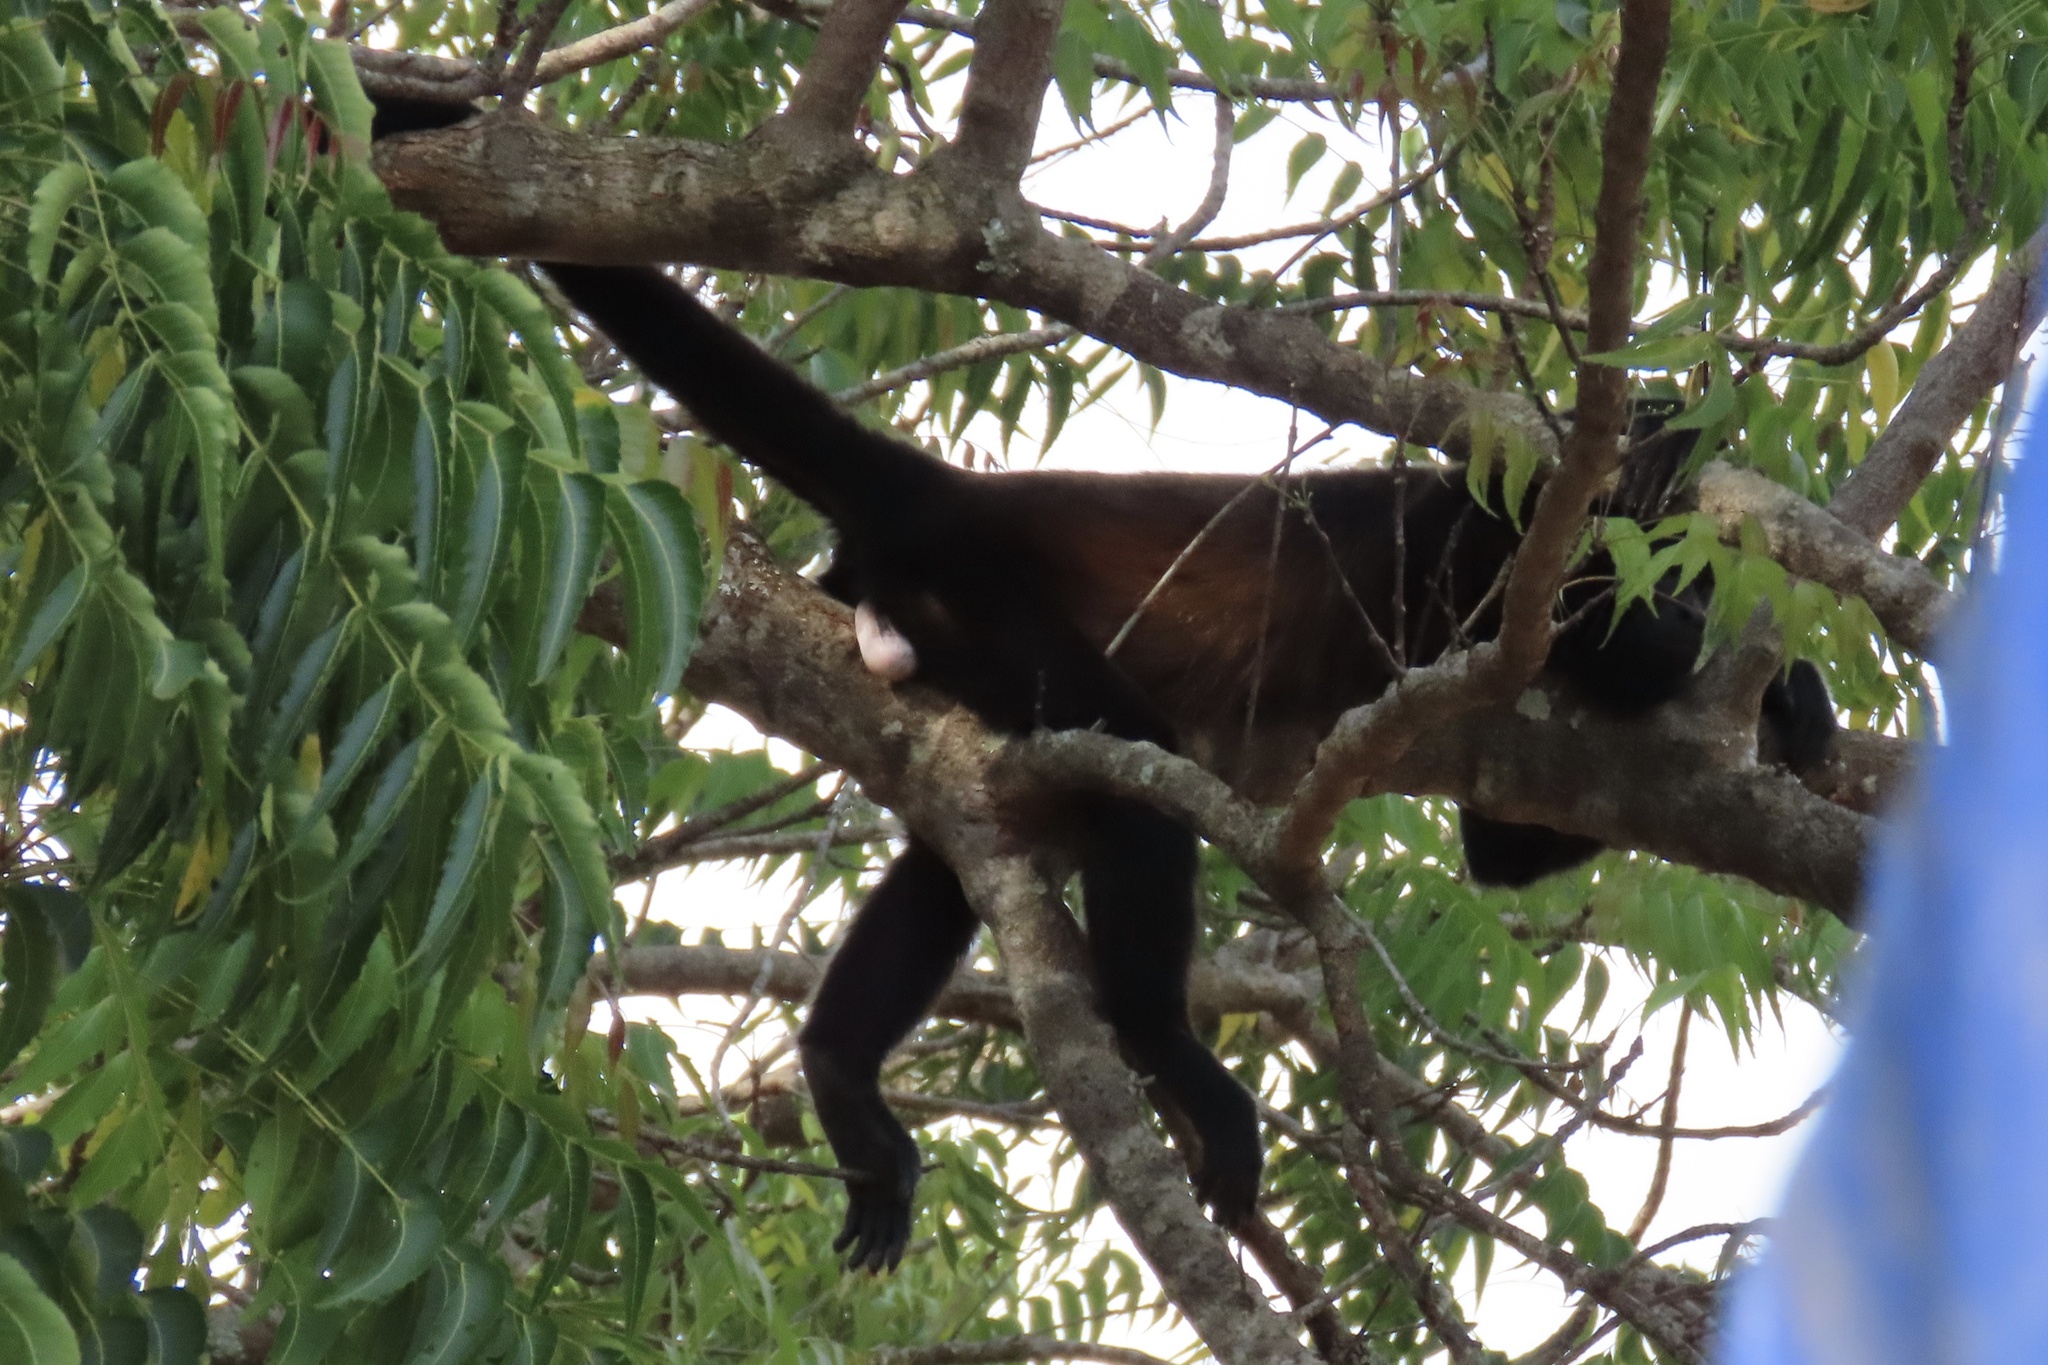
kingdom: Animalia
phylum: Chordata
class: Mammalia
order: Primates
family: Atelidae
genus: Alouatta
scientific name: Alouatta palliata
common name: Mantled howler
